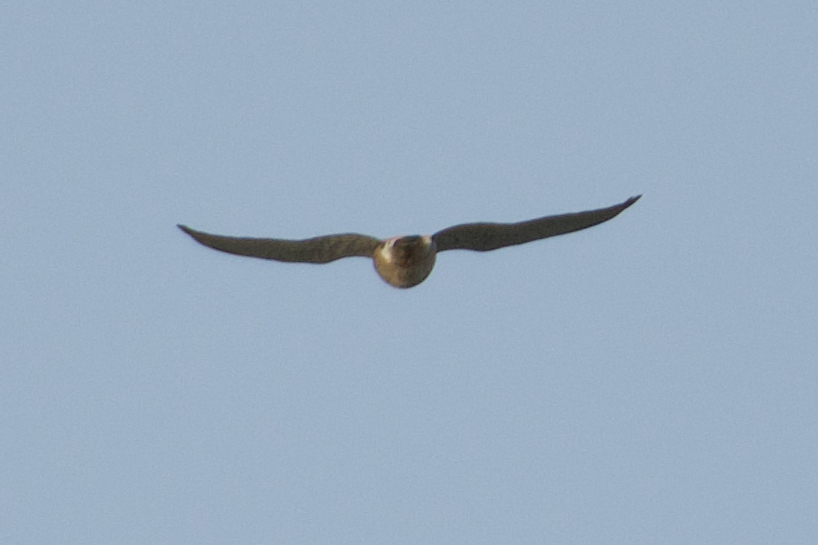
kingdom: Animalia
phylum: Chordata
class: Aves
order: Falconiformes
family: Falconidae
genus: Falco
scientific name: Falco tinnunculus
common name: Common kestrel
